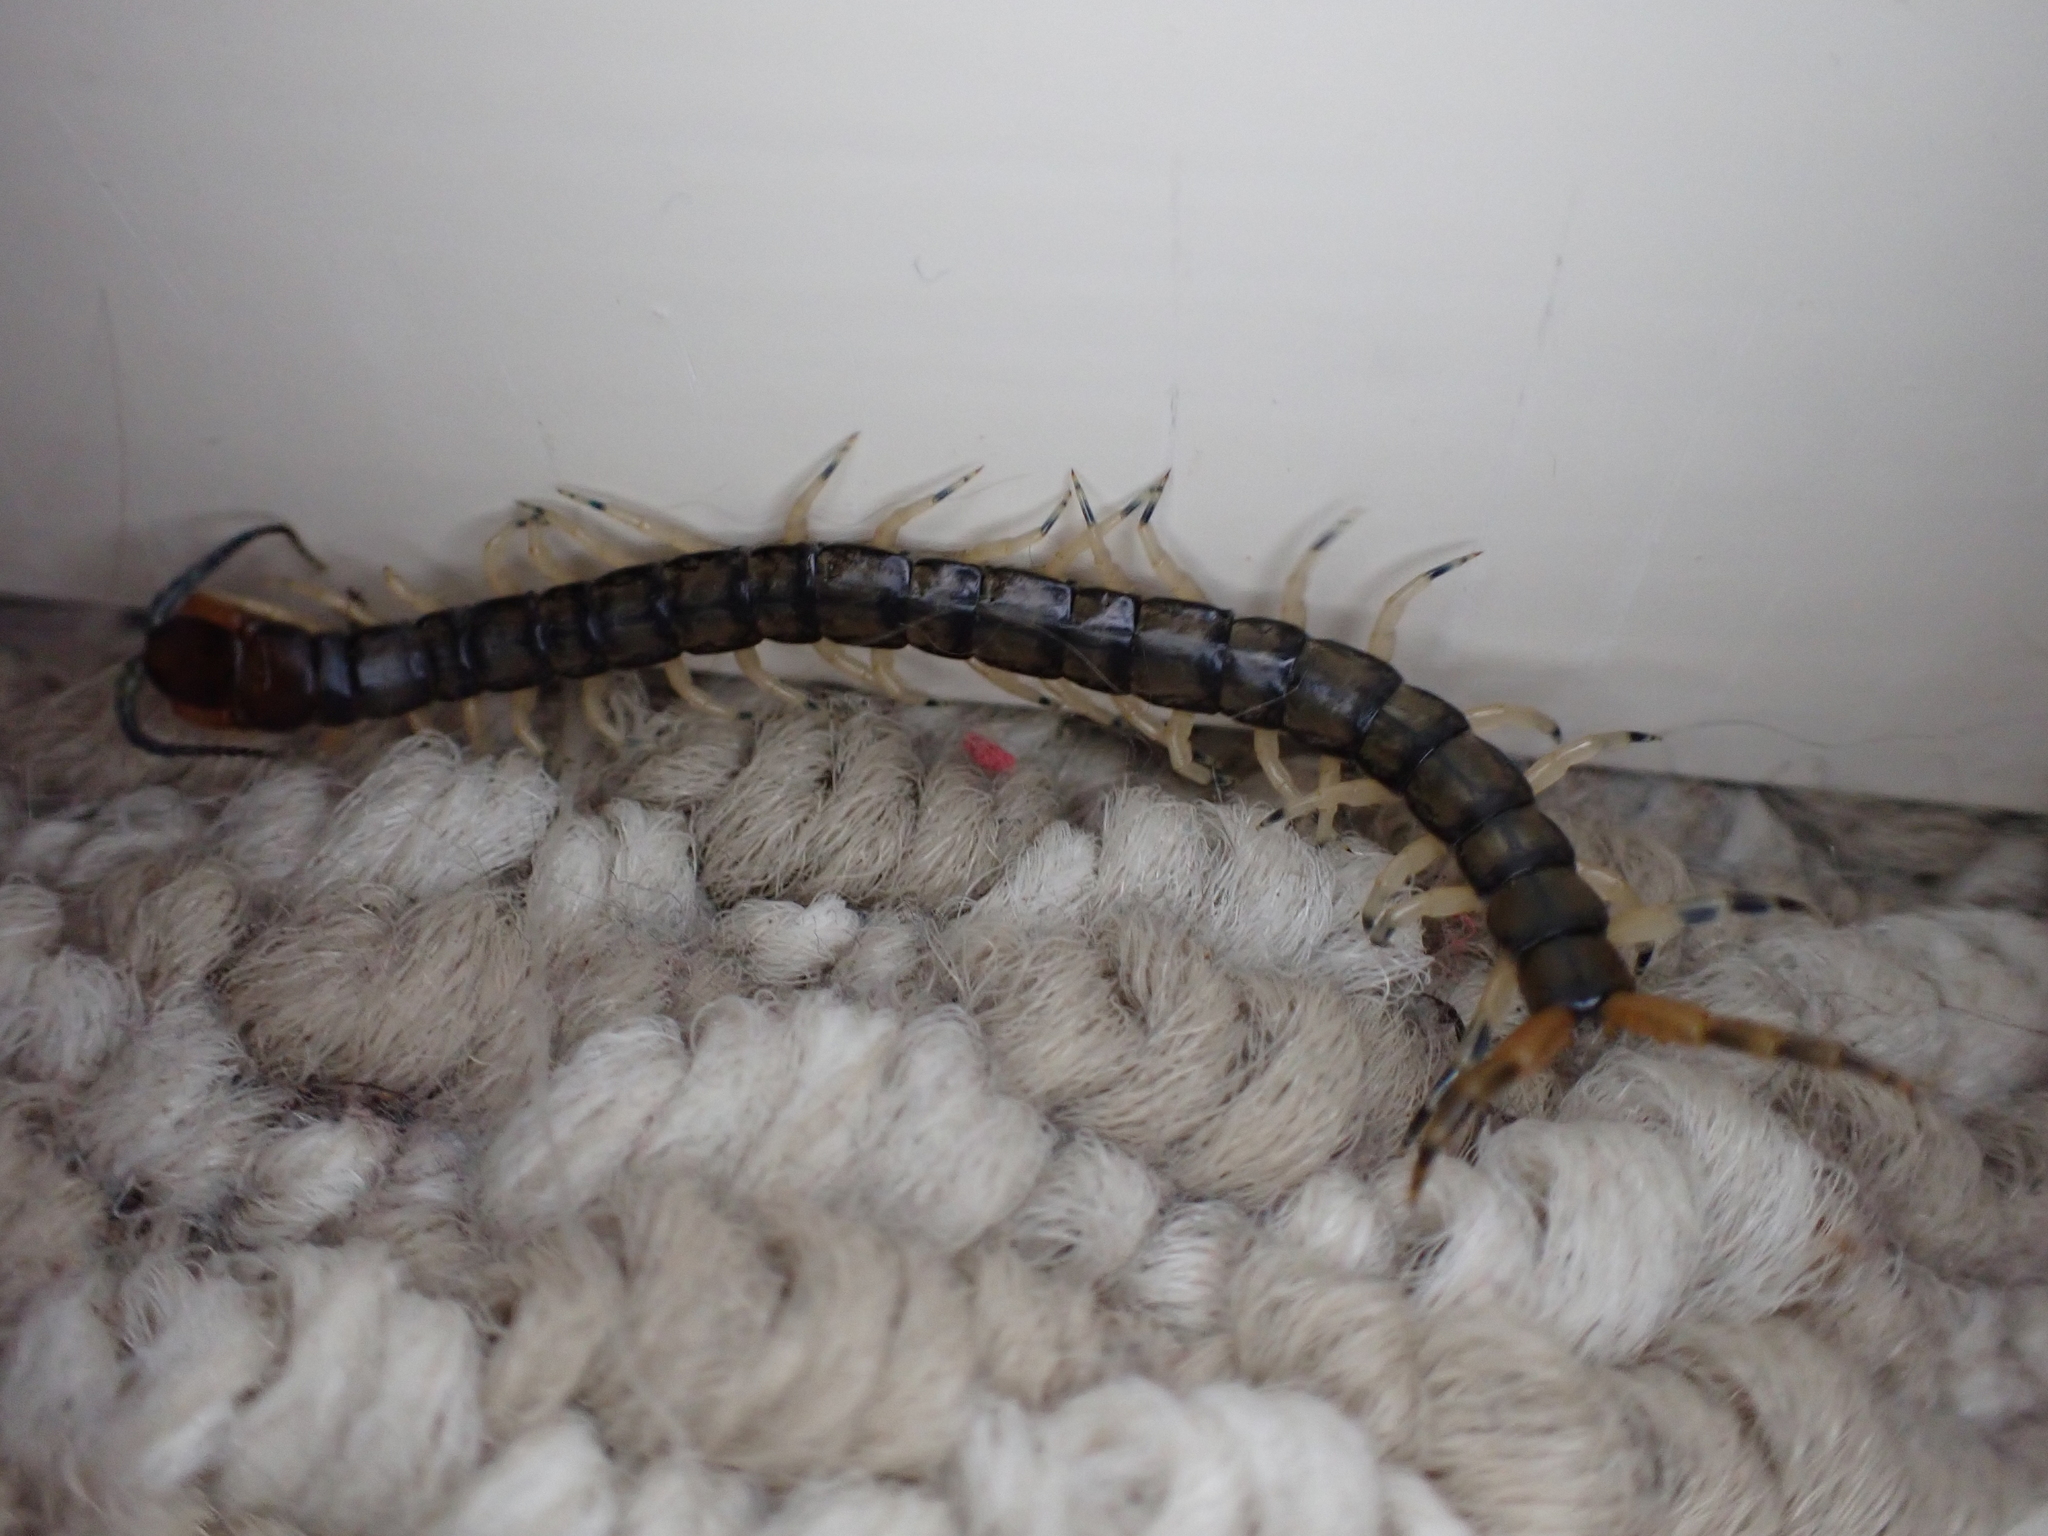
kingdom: Animalia
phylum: Arthropoda
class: Chilopoda
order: Scolopendromorpha
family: Scolopendridae
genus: Hemiscolopendra
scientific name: Hemiscolopendra marginata
